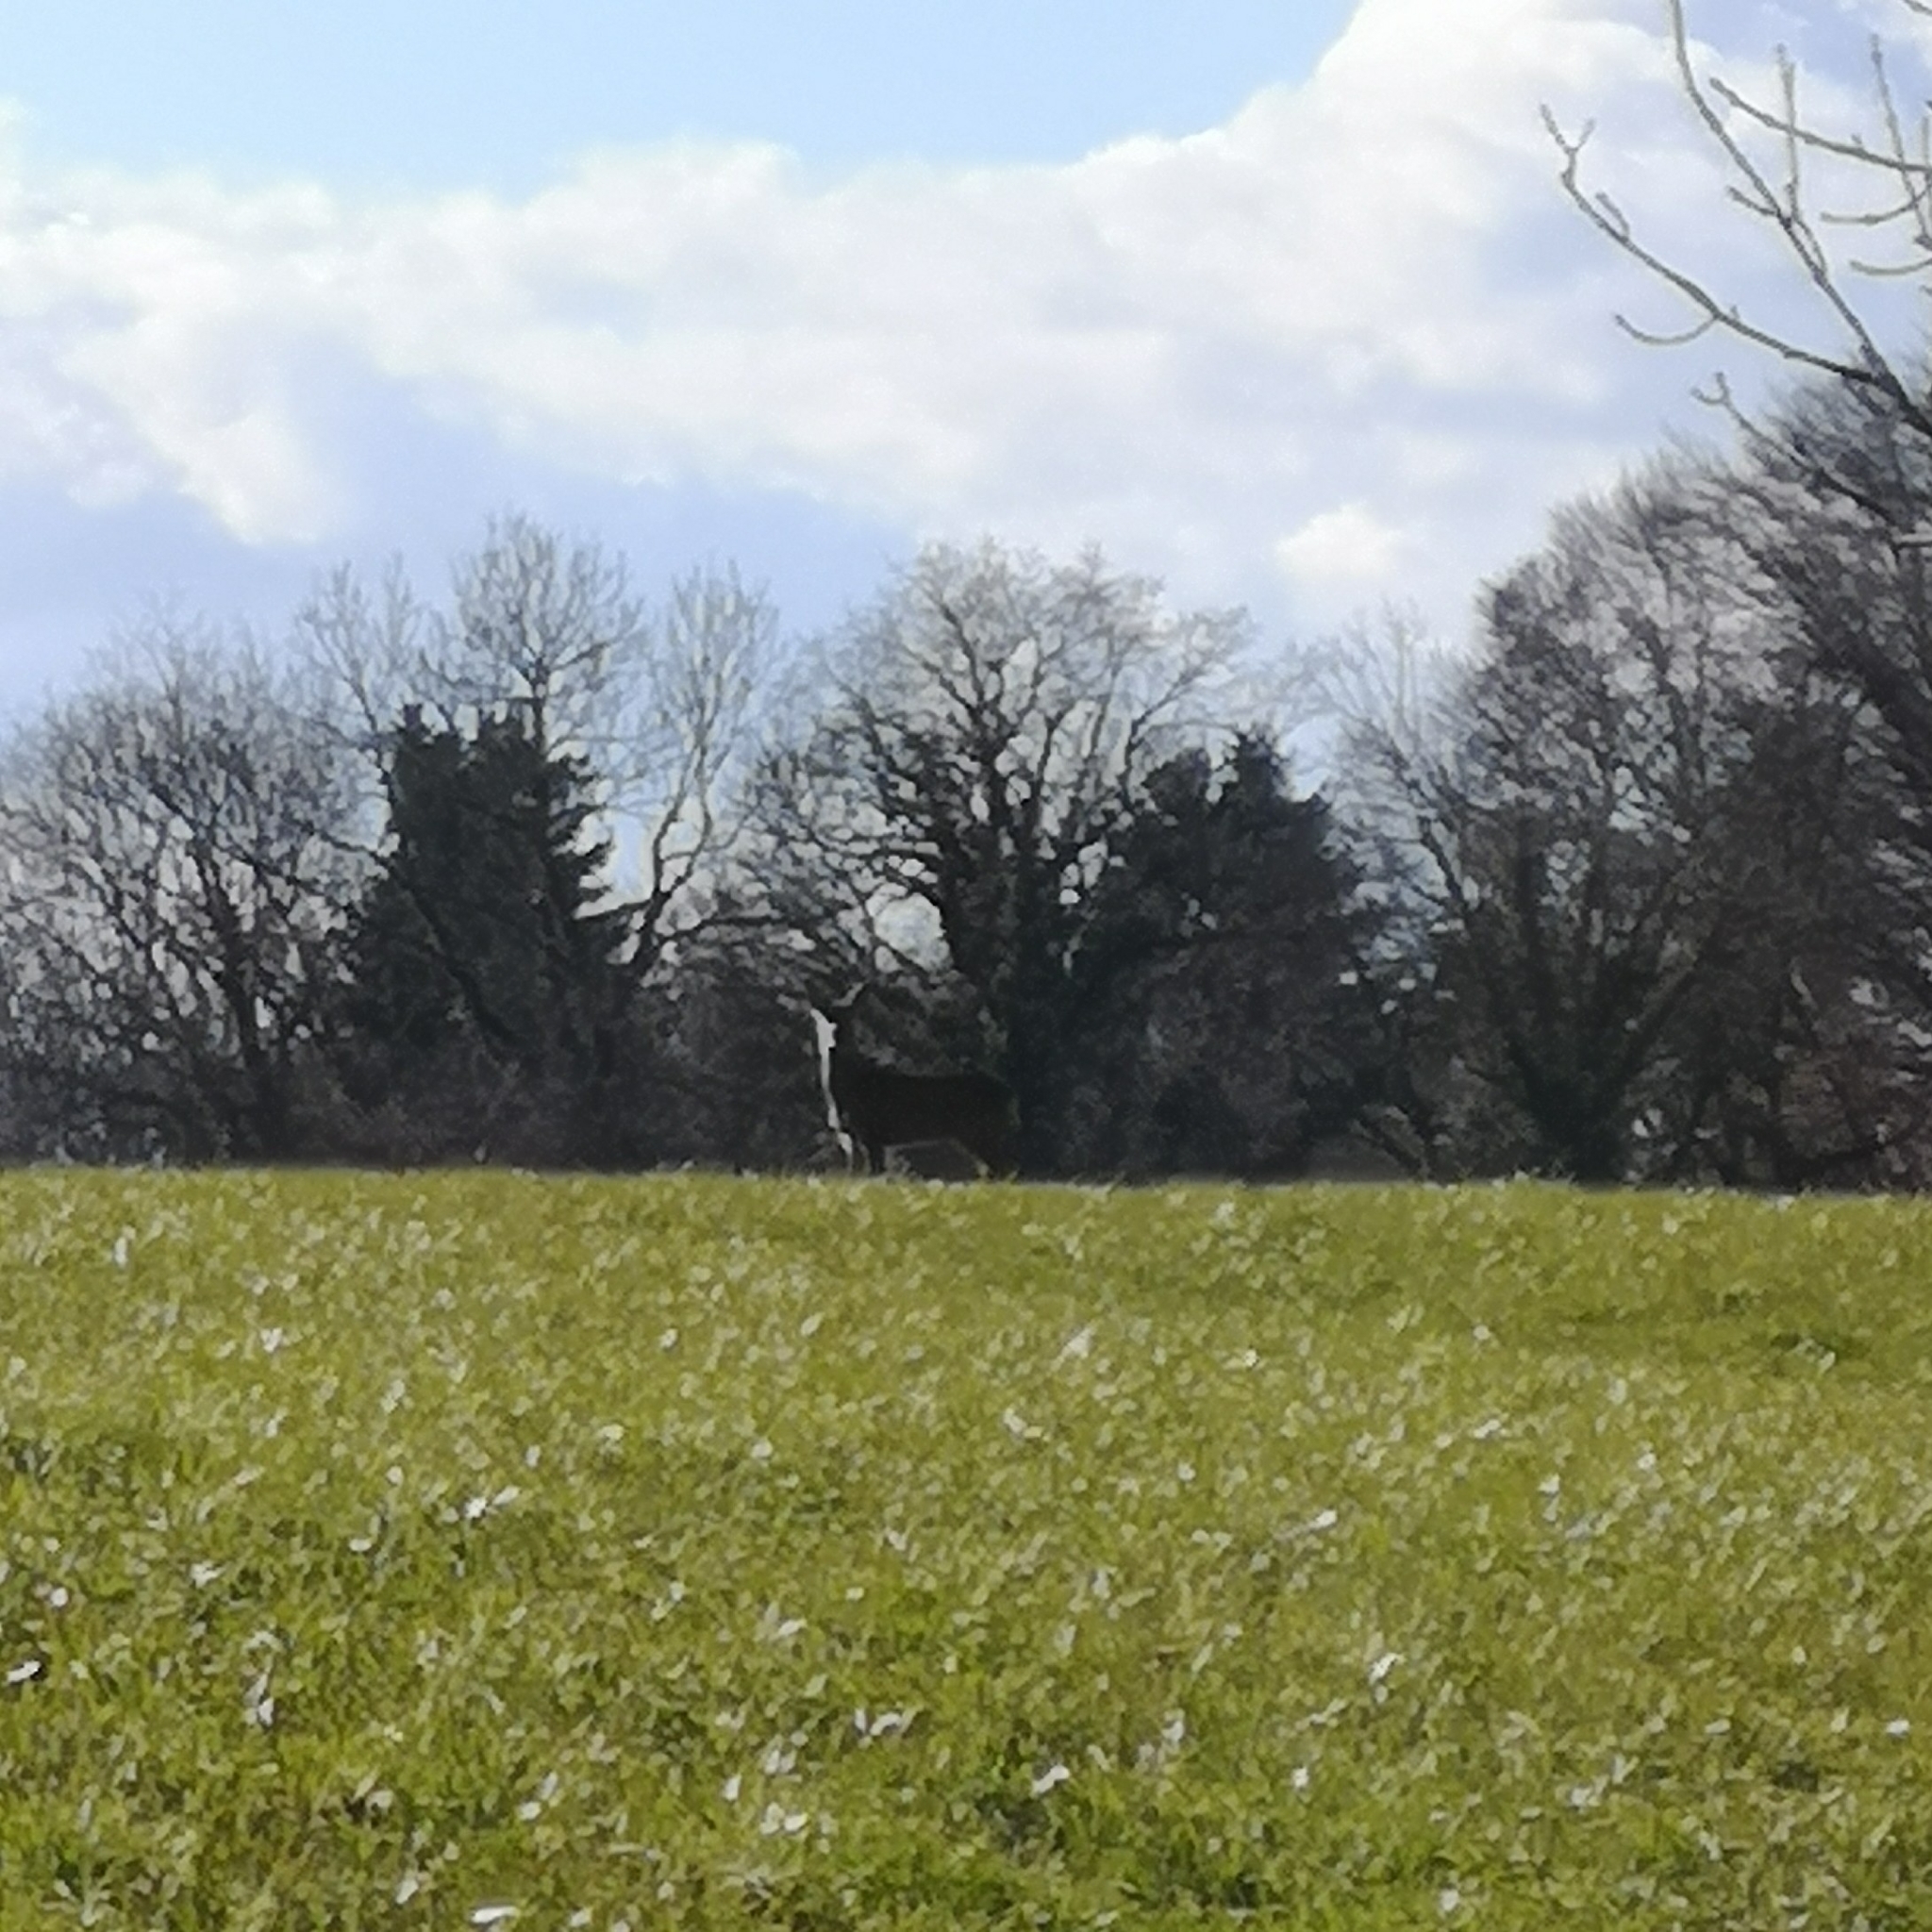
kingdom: Animalia
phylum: Chordata
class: Mammalia
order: Artiodactyla
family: Cervidae
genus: Capreolus
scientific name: Capreolus capreolus
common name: Western roe deer
